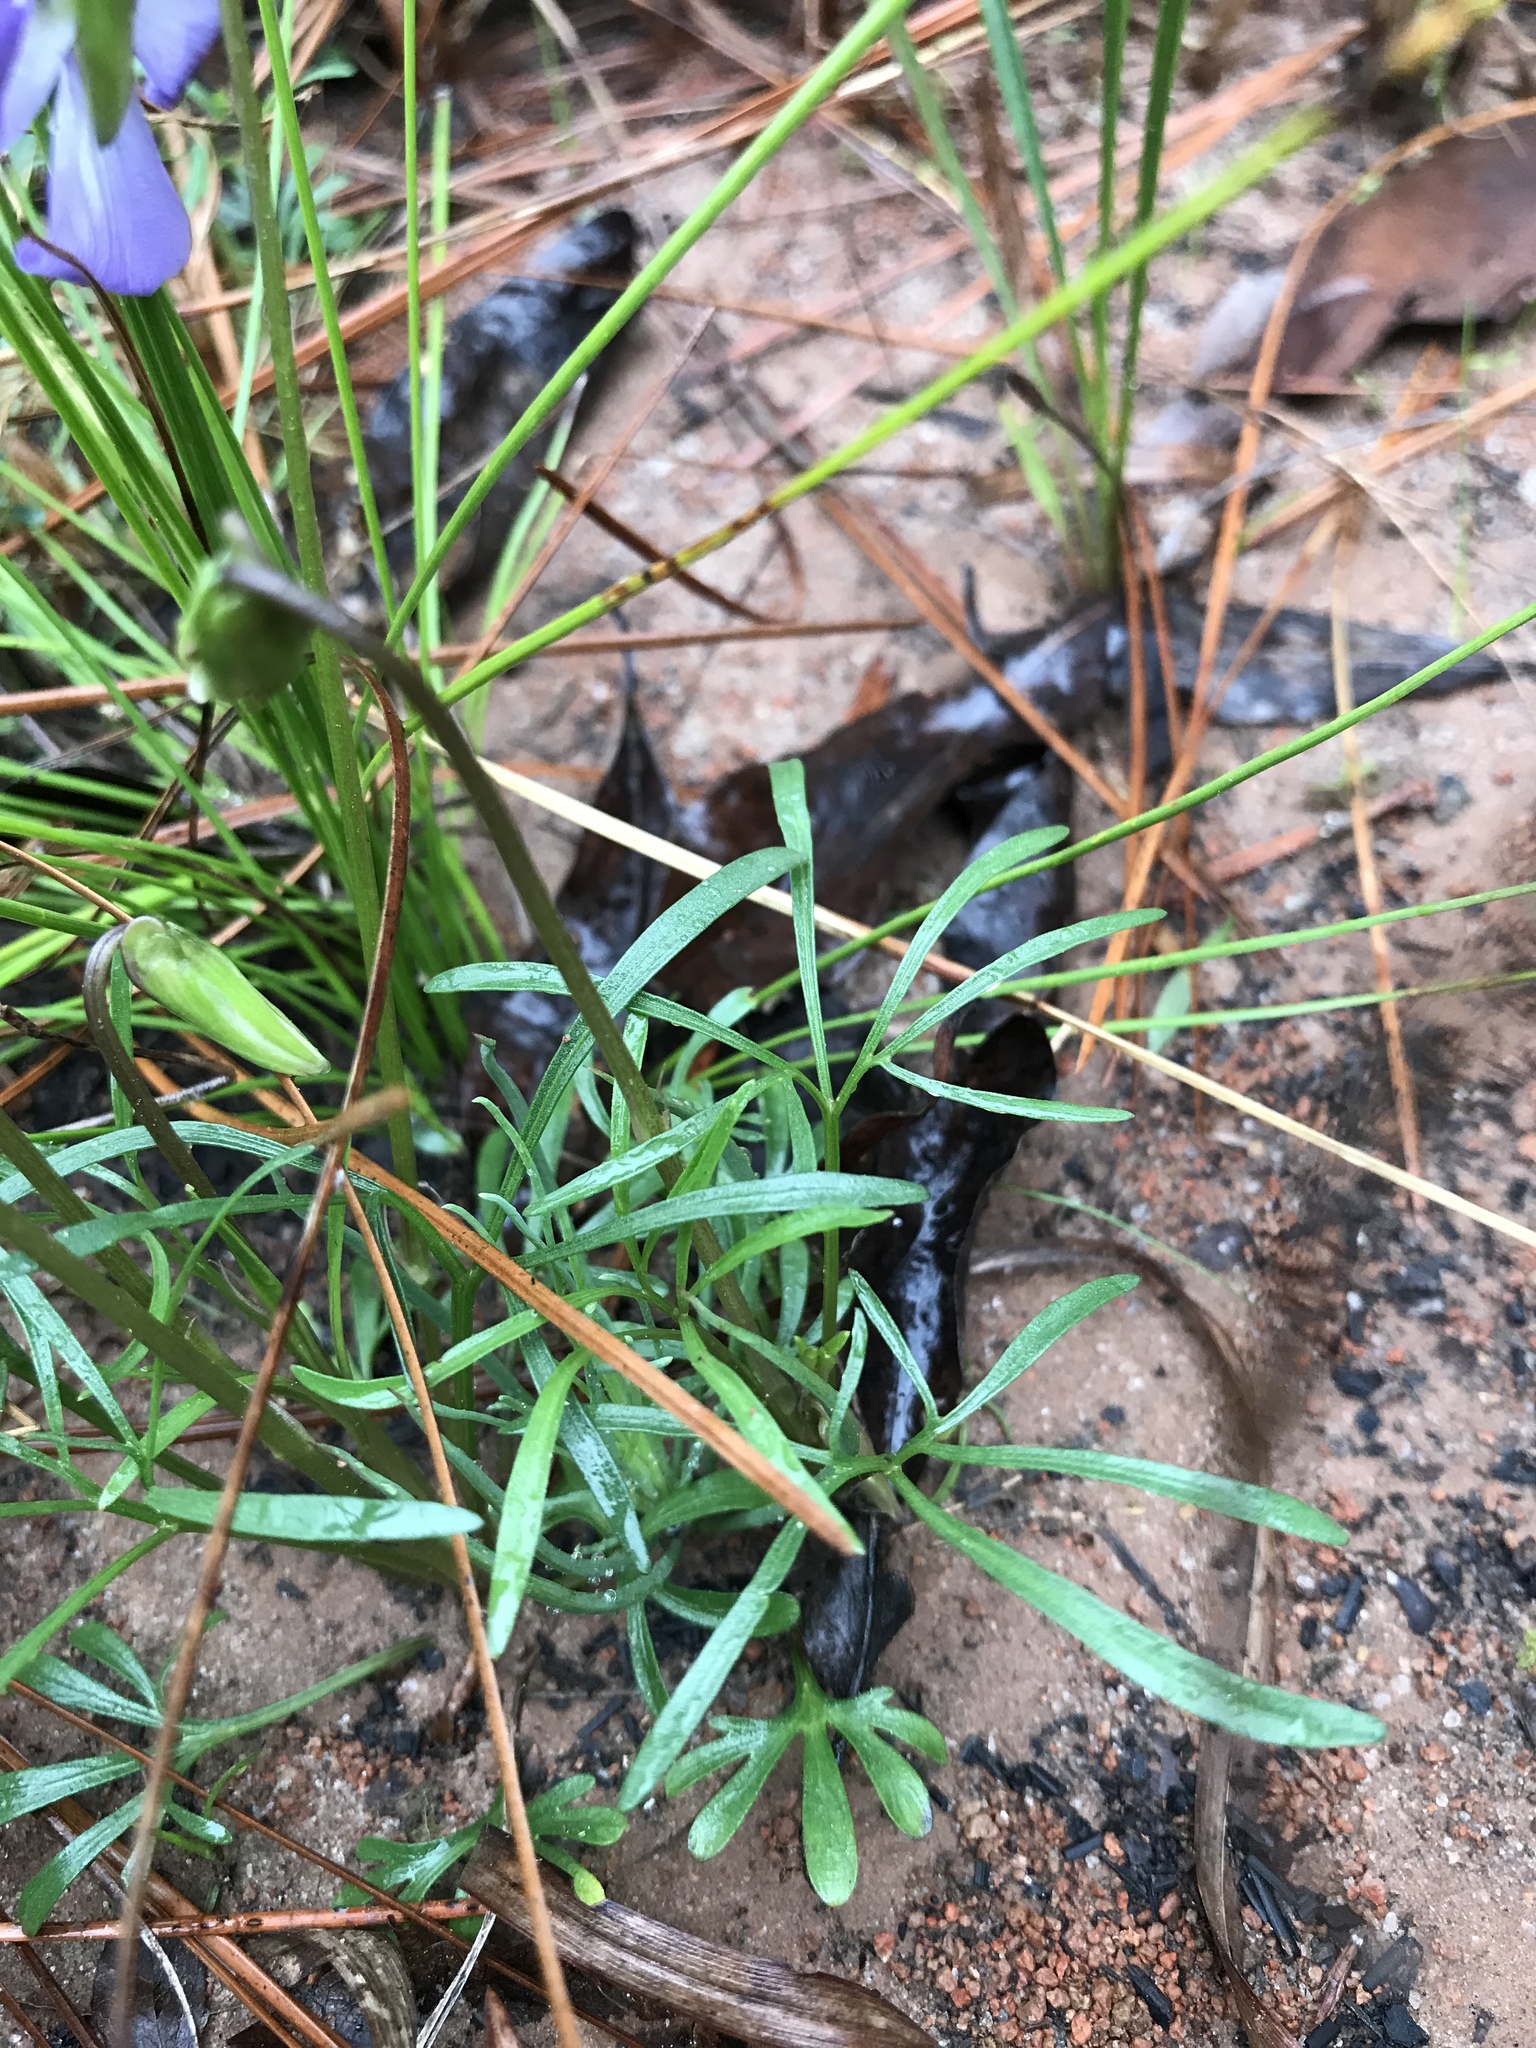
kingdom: Plantae
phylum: Tracheophyta
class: Magnoliopsida
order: Malpighiales
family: Violaceae
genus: Viola
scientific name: Viola pedata
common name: Pansy violet
